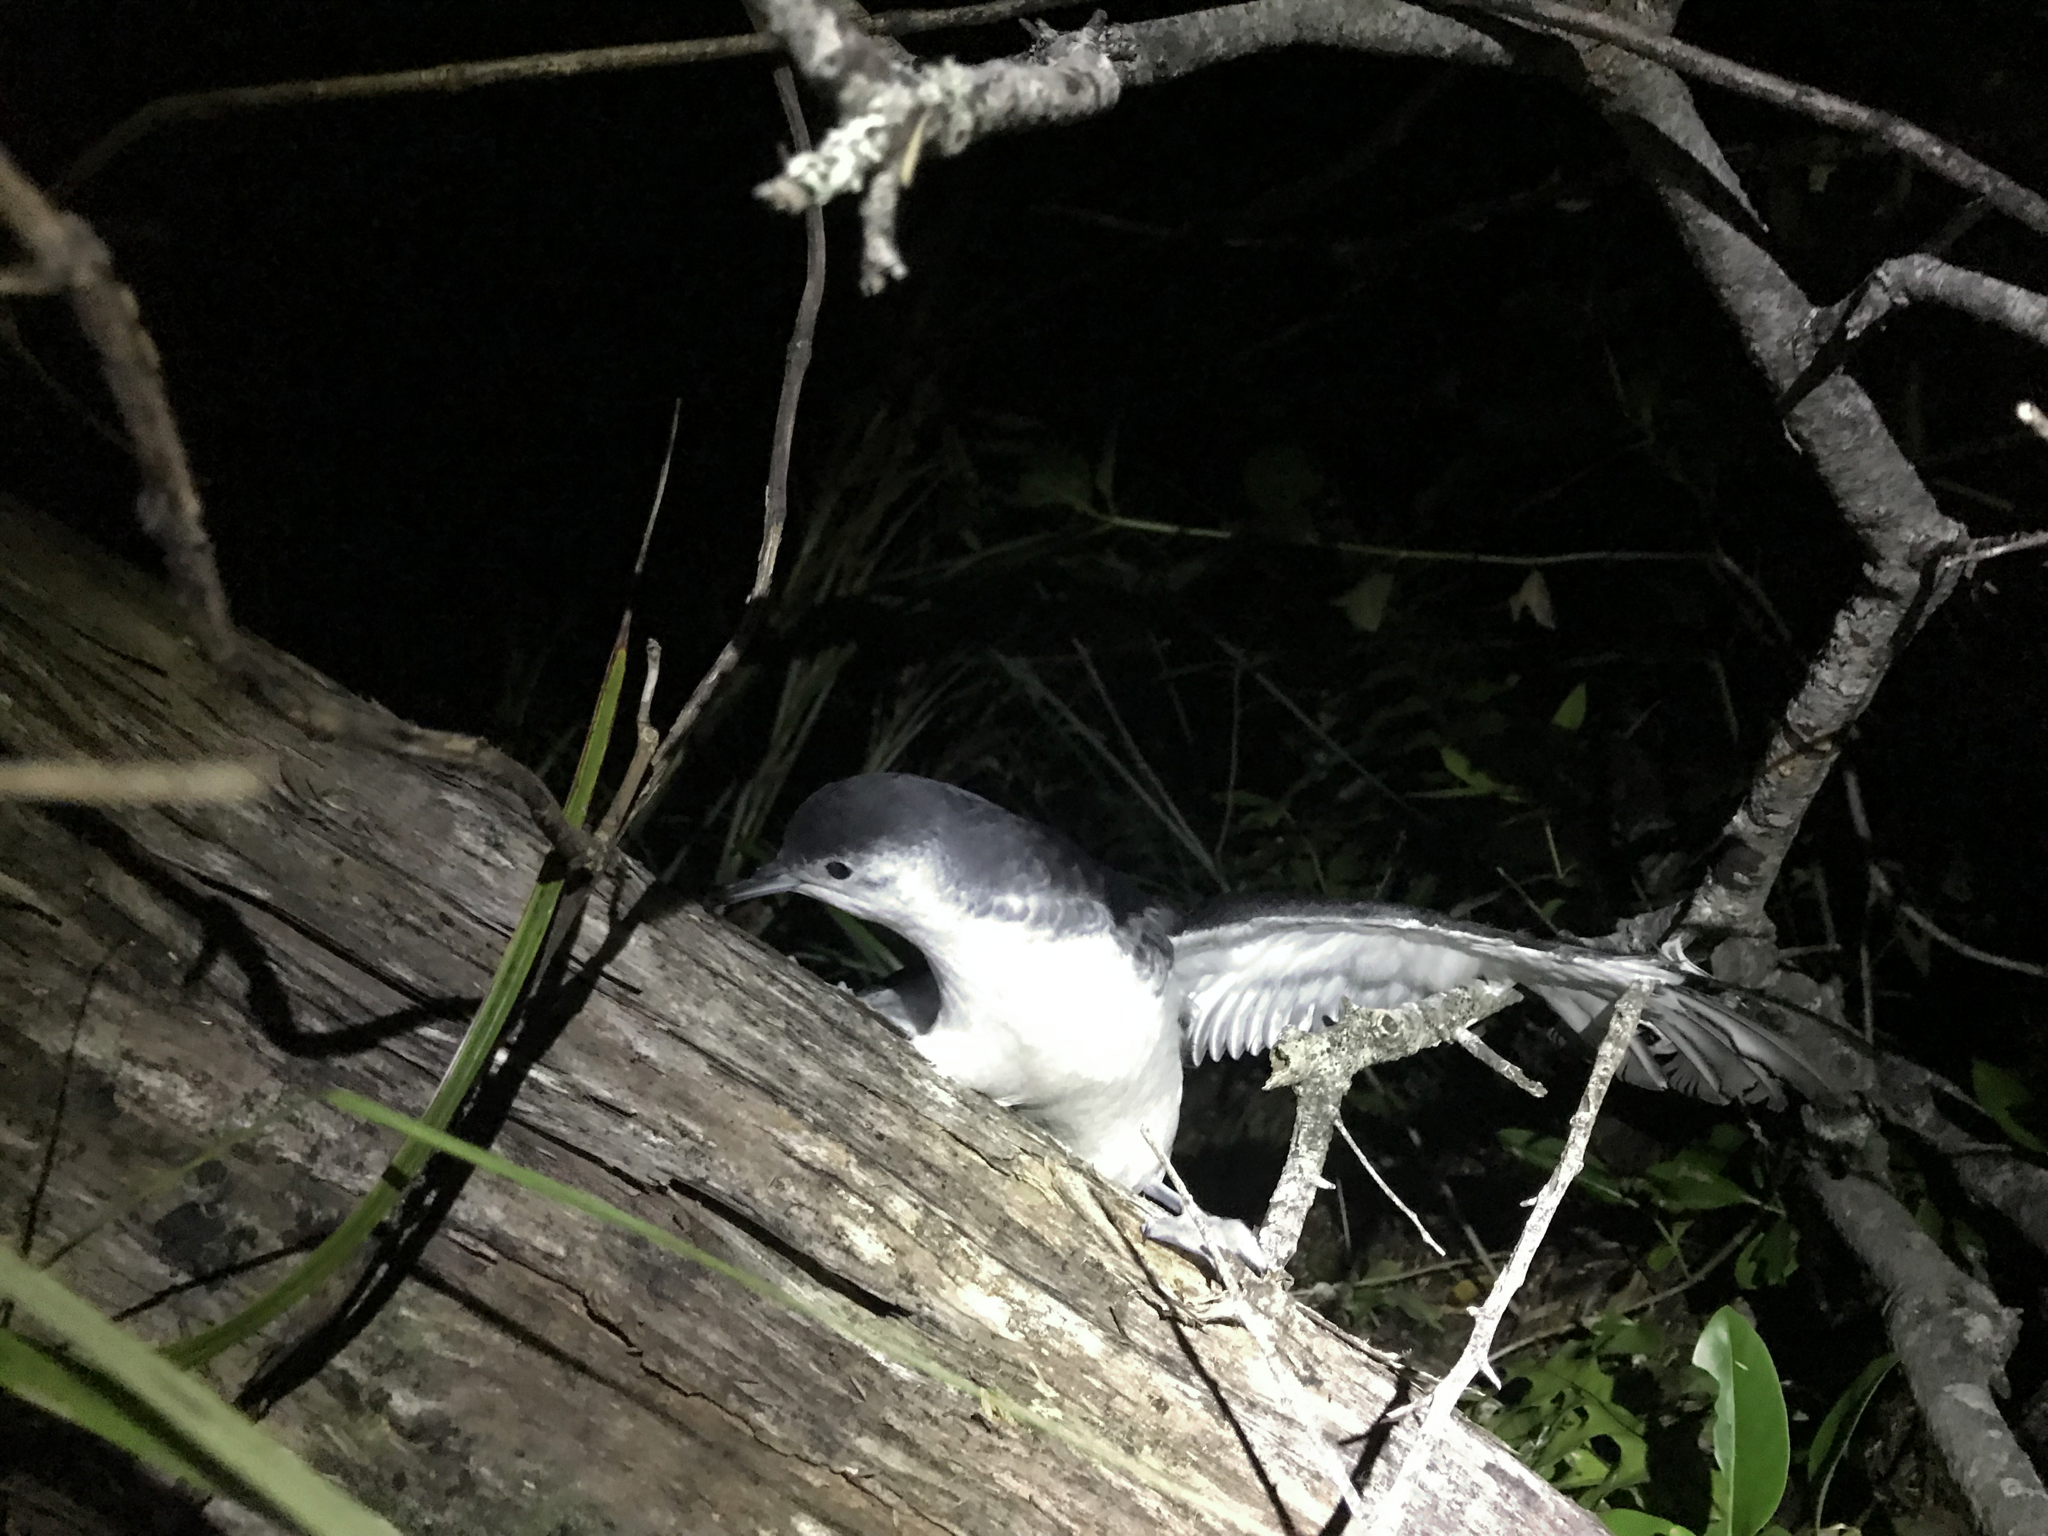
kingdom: Animalia
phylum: Chordata
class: Aves
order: Procellariiformes
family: Procellariidae
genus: Puffinus
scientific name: Puffinus assimilis
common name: Little shearwater
